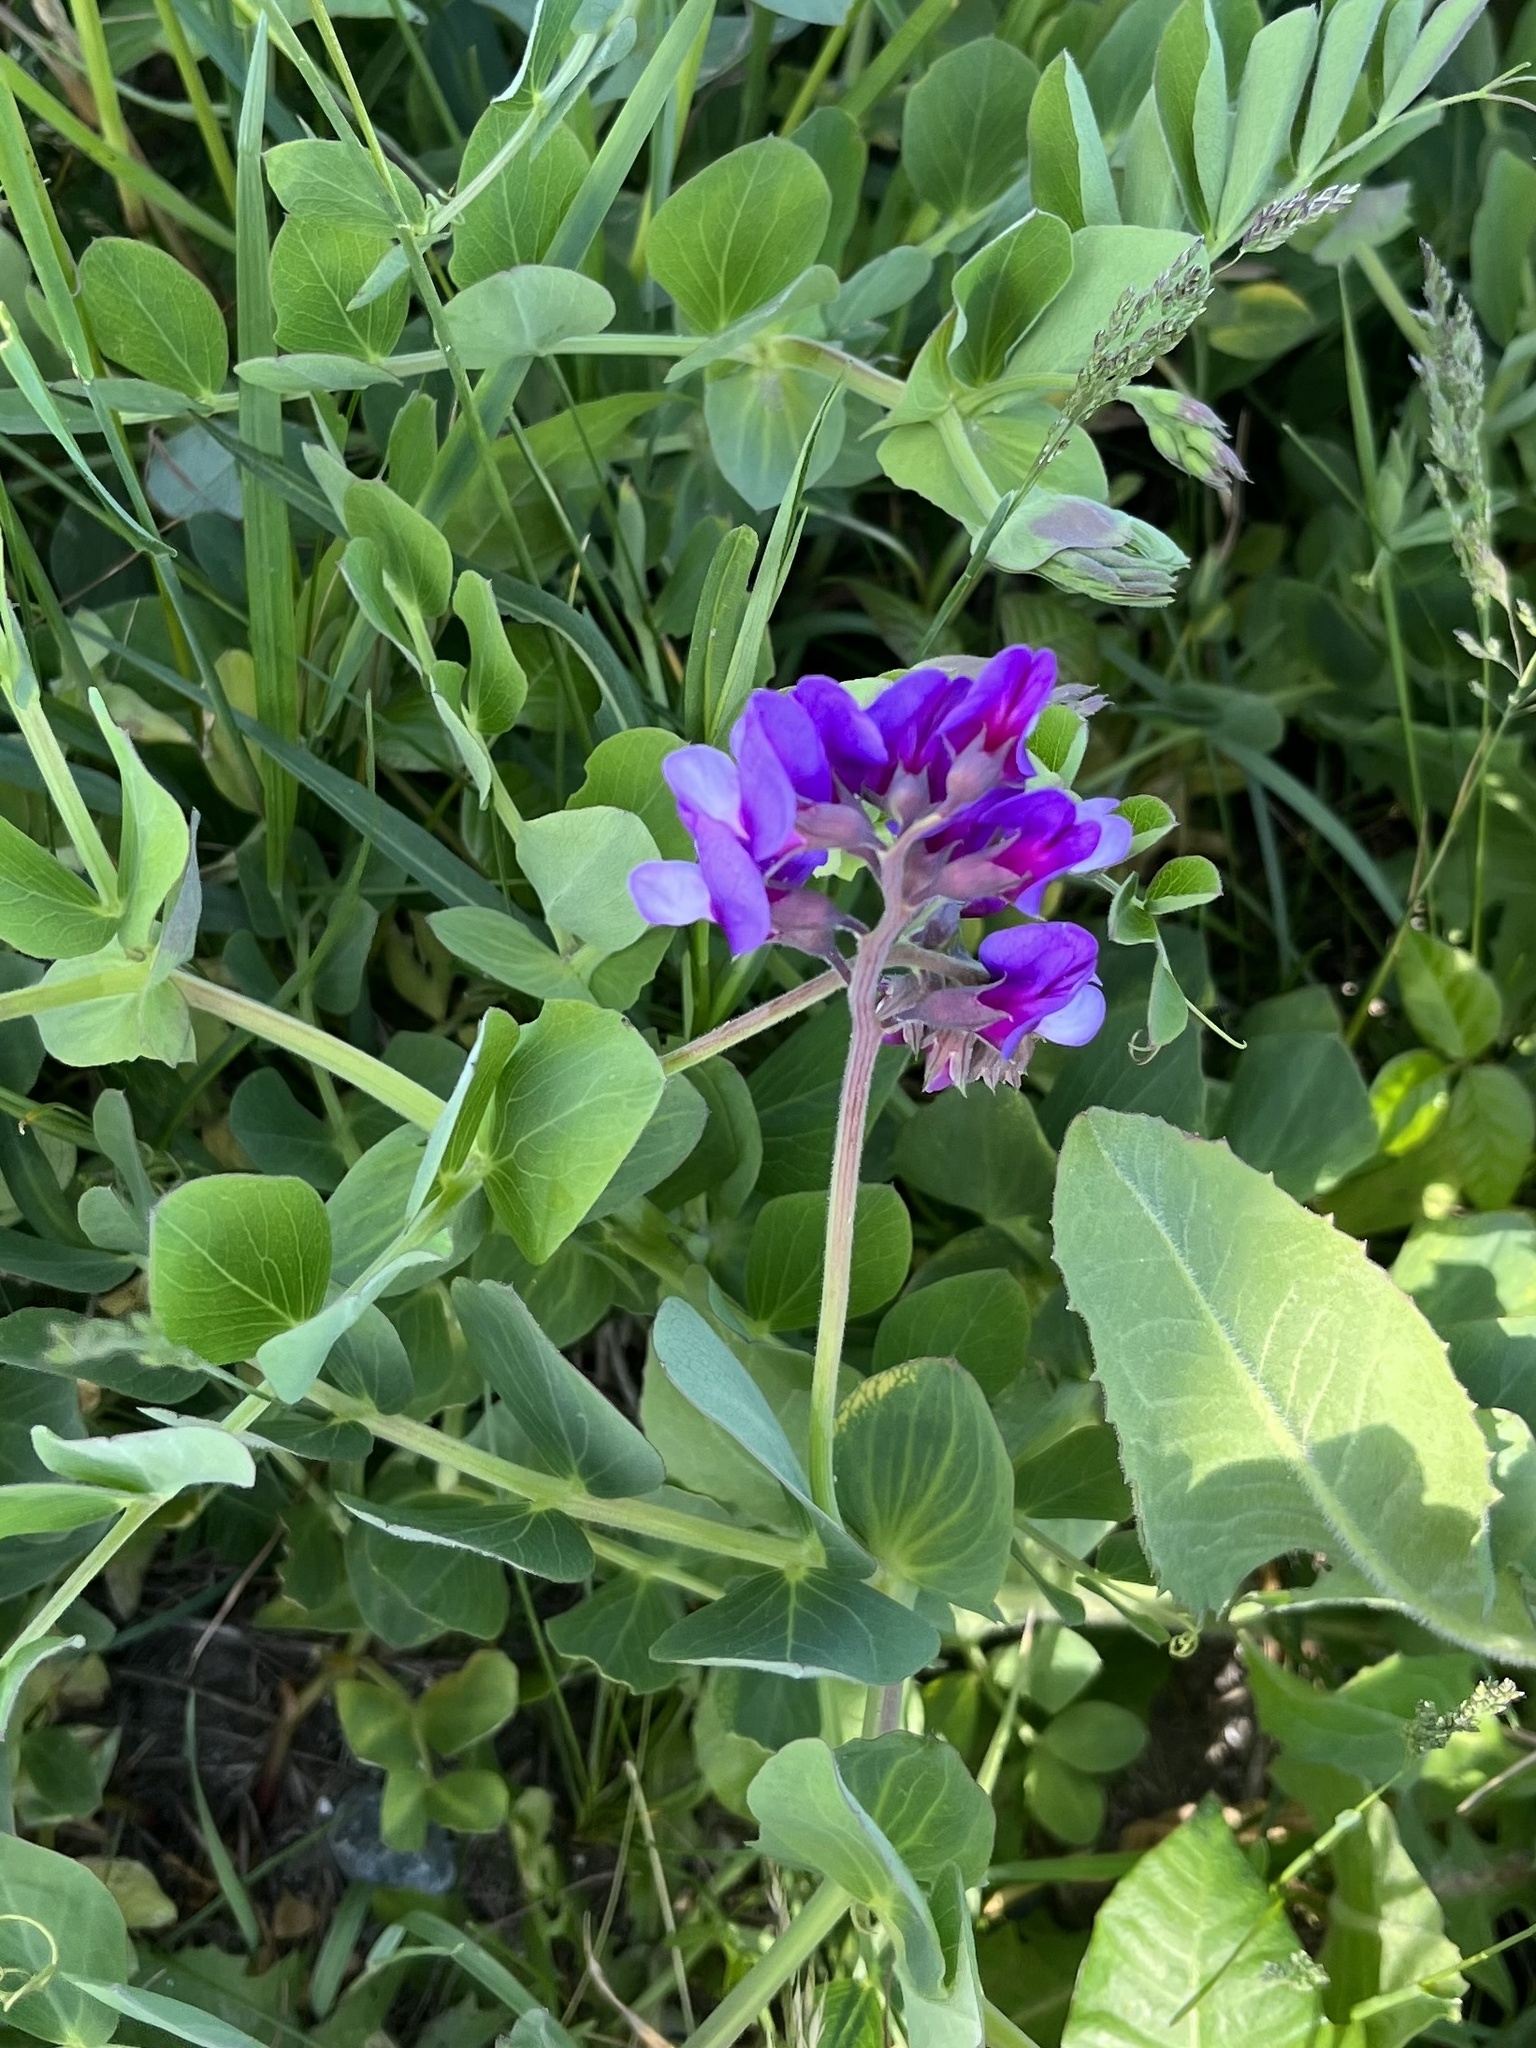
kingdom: Plantae
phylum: Tracheophyta
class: Magnoliopsida
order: Fabales
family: Fabaceae
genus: Lathyrus
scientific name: Lathyrus japonicus
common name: Sea pea
